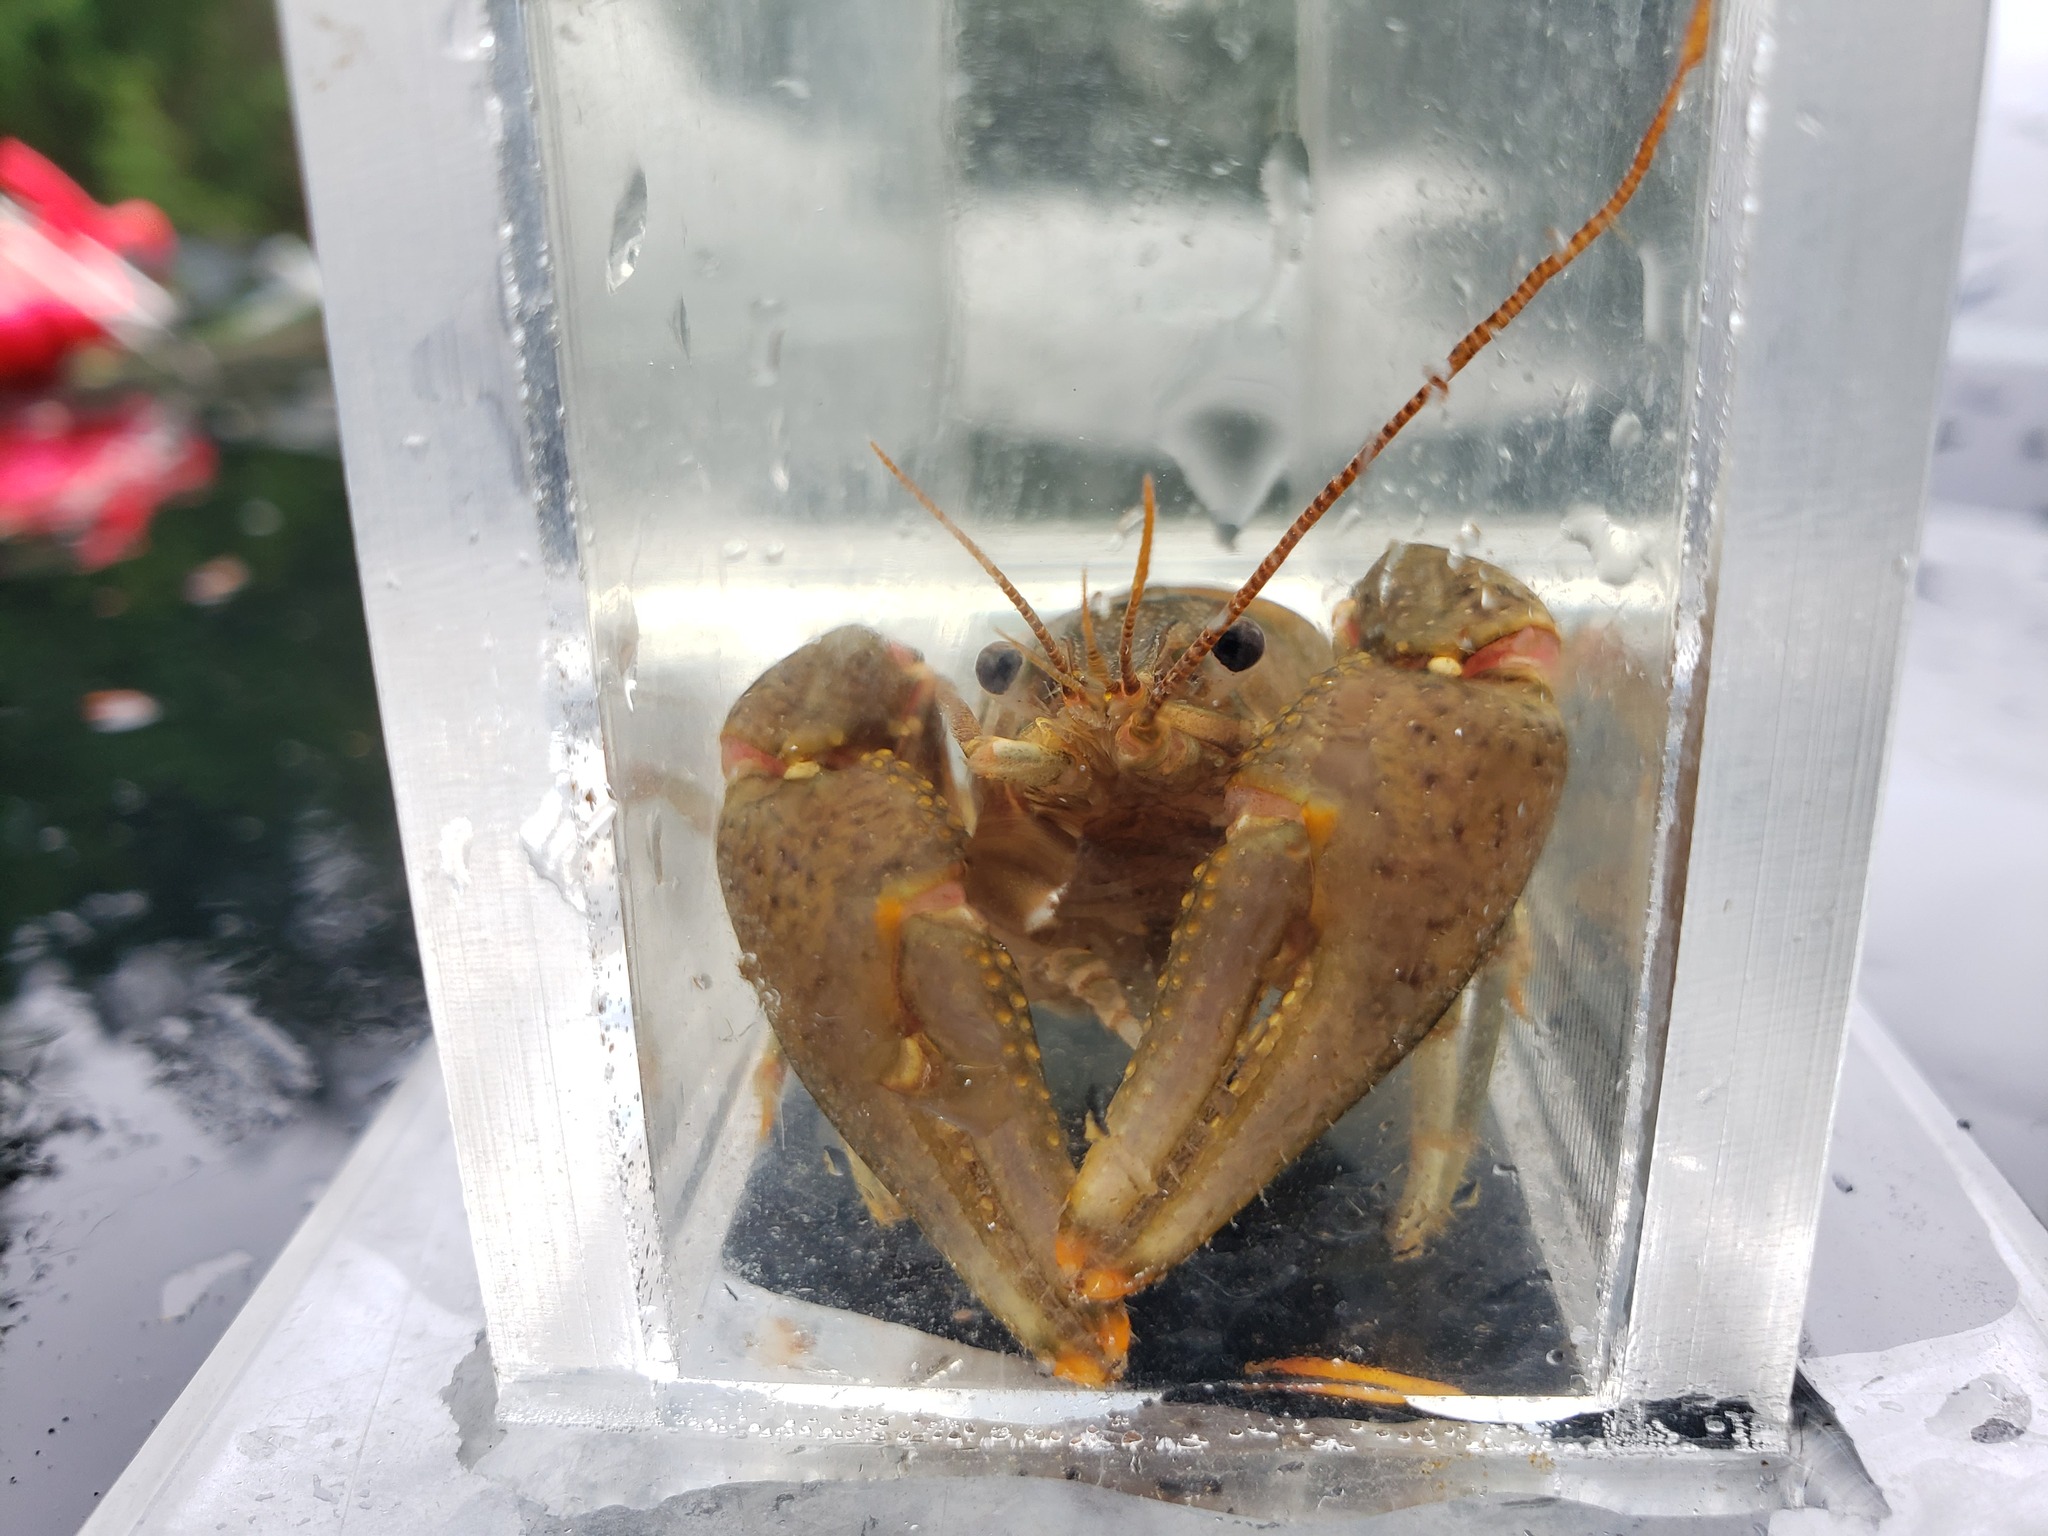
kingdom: Animalia
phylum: Arthropoda
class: Malacostraca
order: Decapoda
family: Cambaridae
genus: Faxonius
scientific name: Faxonius propinquus
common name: Northern clearwater crayfish
